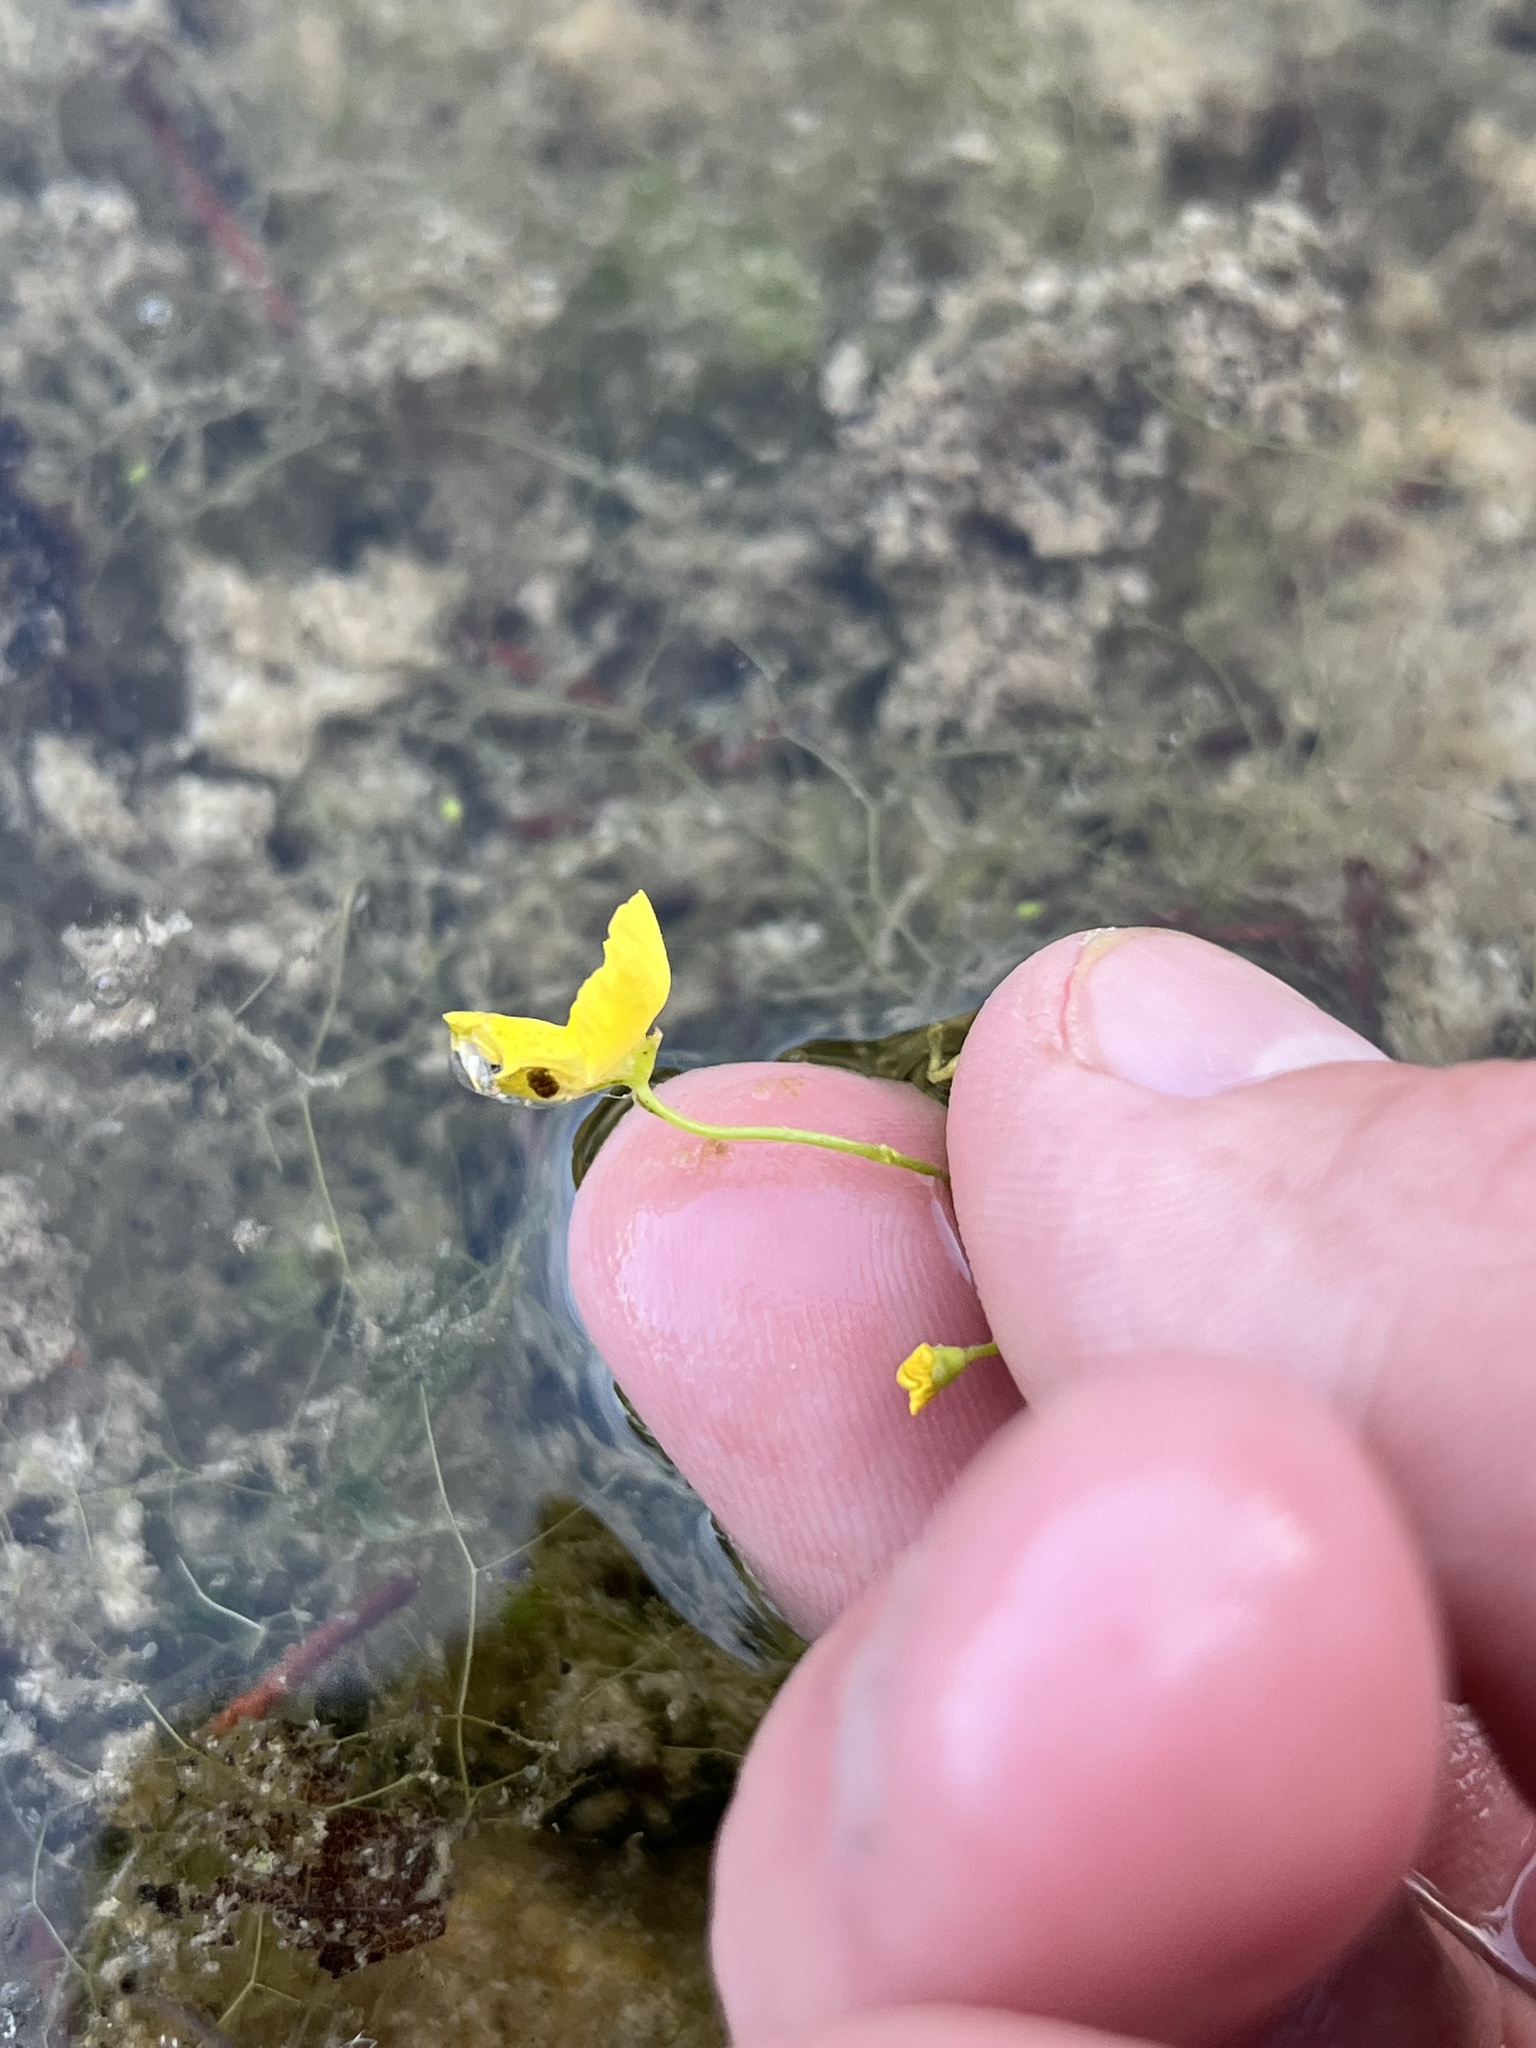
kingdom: Plantae
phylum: Tracheophyta
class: Magnoliopsida
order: Lamiales
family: Lentibulariaceae
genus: Utricularia
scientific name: Utricularia gibba
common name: Humped bladderwort
